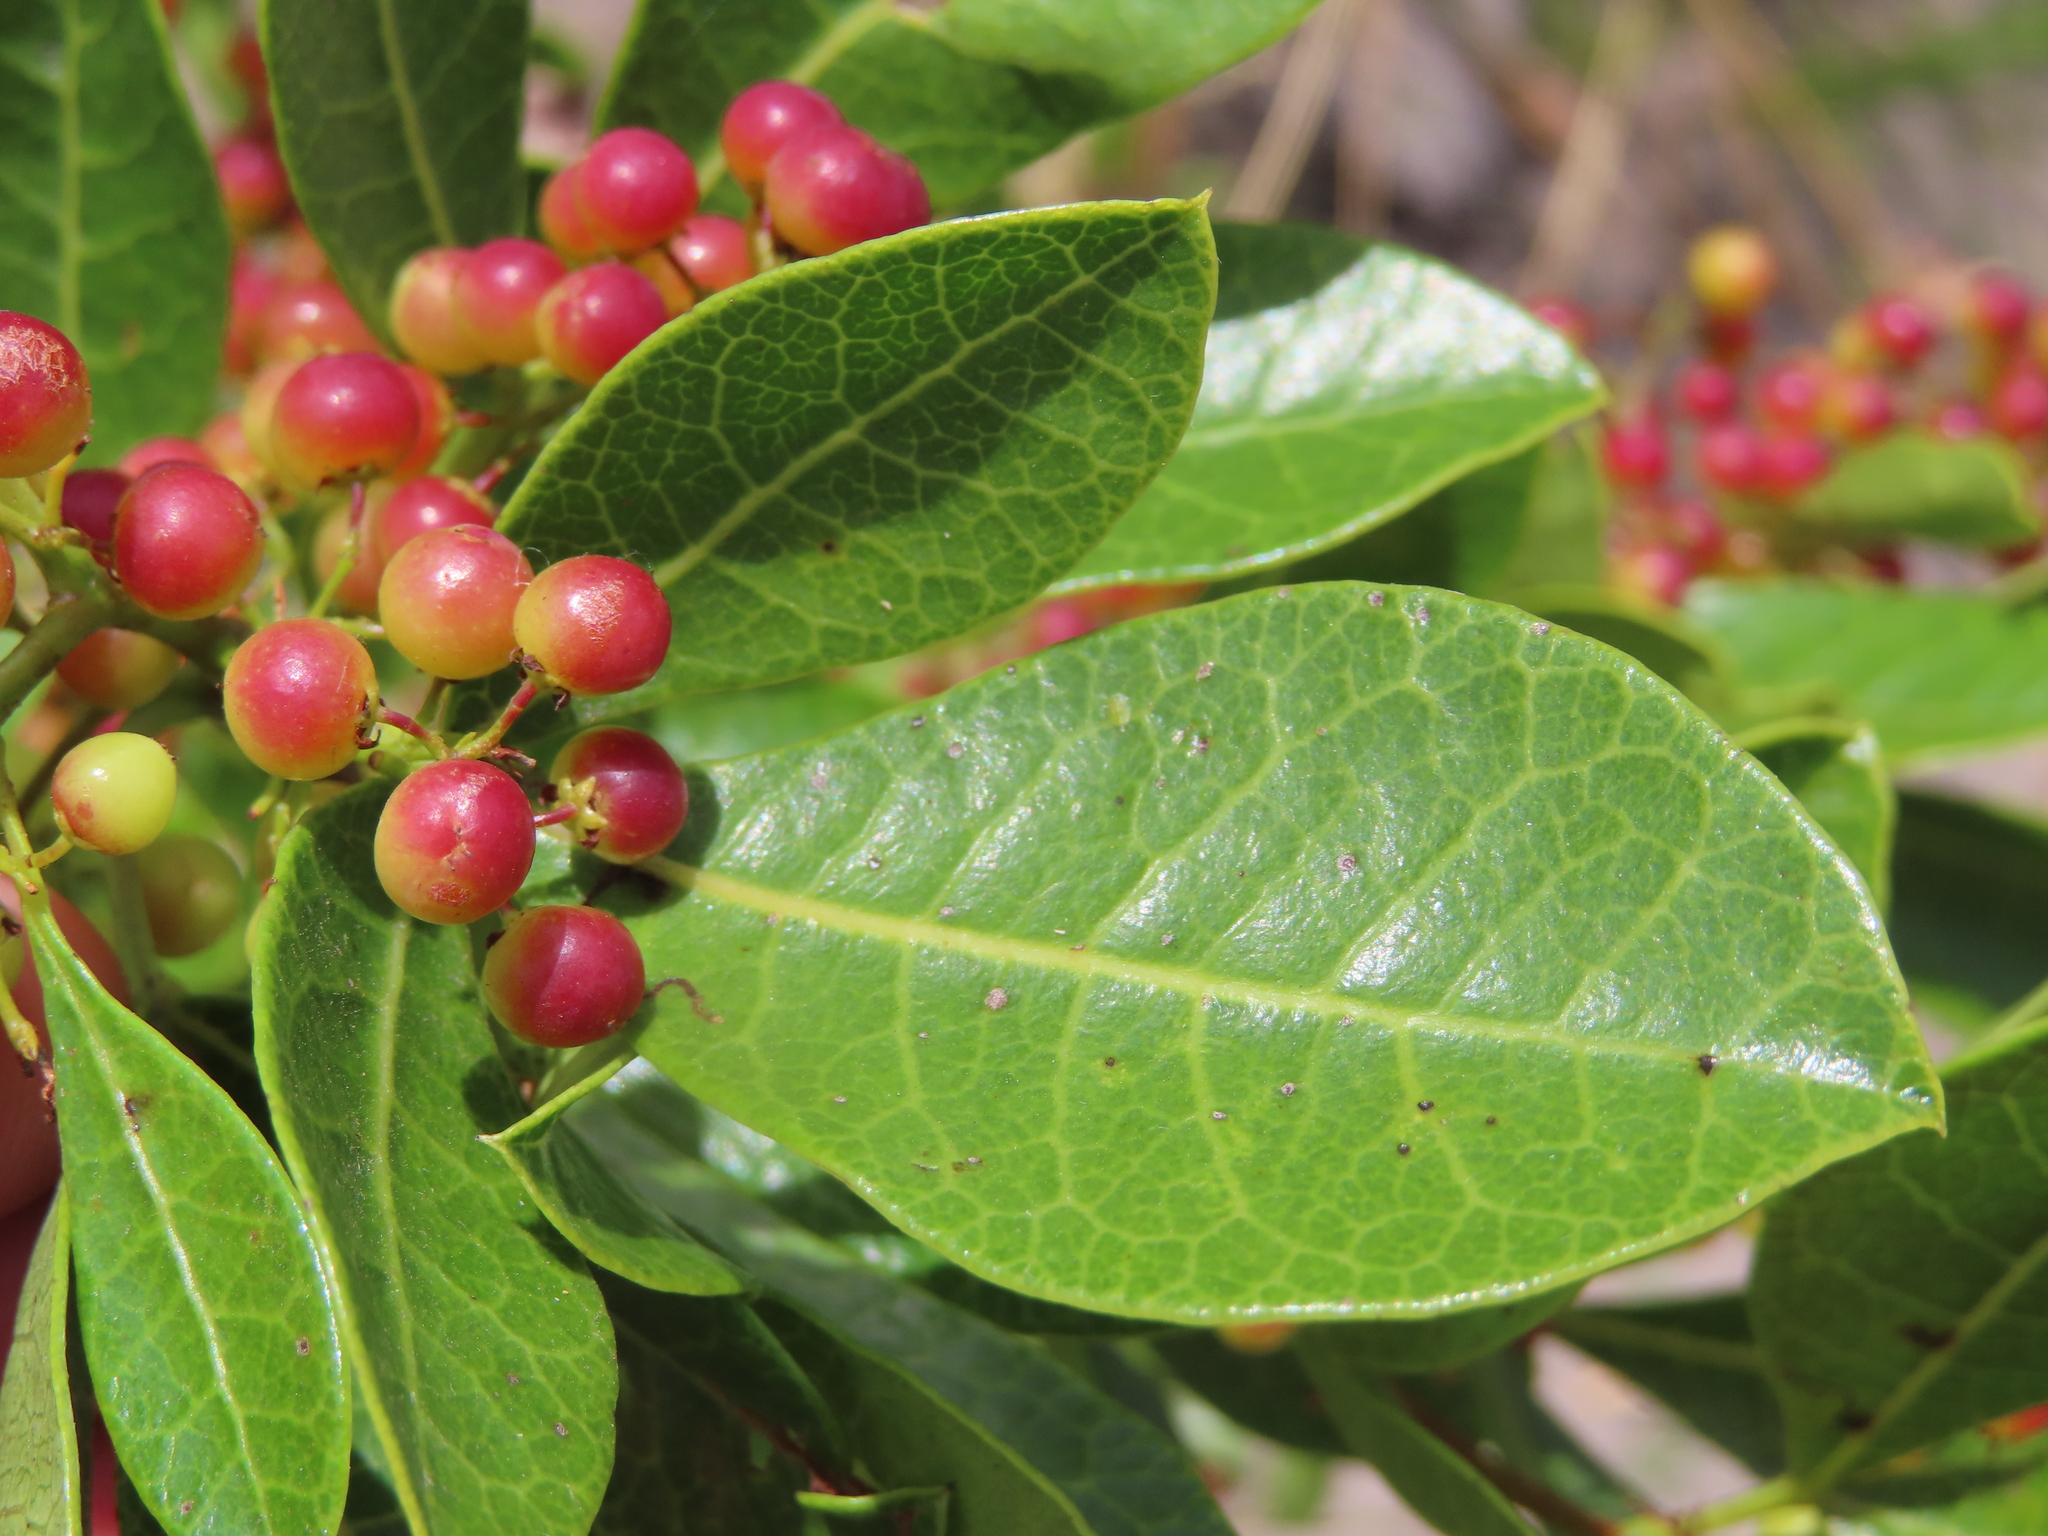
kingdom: Plantae
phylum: Tracheophyta
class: Magnoliopsida
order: Sapindales
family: Anacardiaceae
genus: Searsia
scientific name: Searsia laevigata
